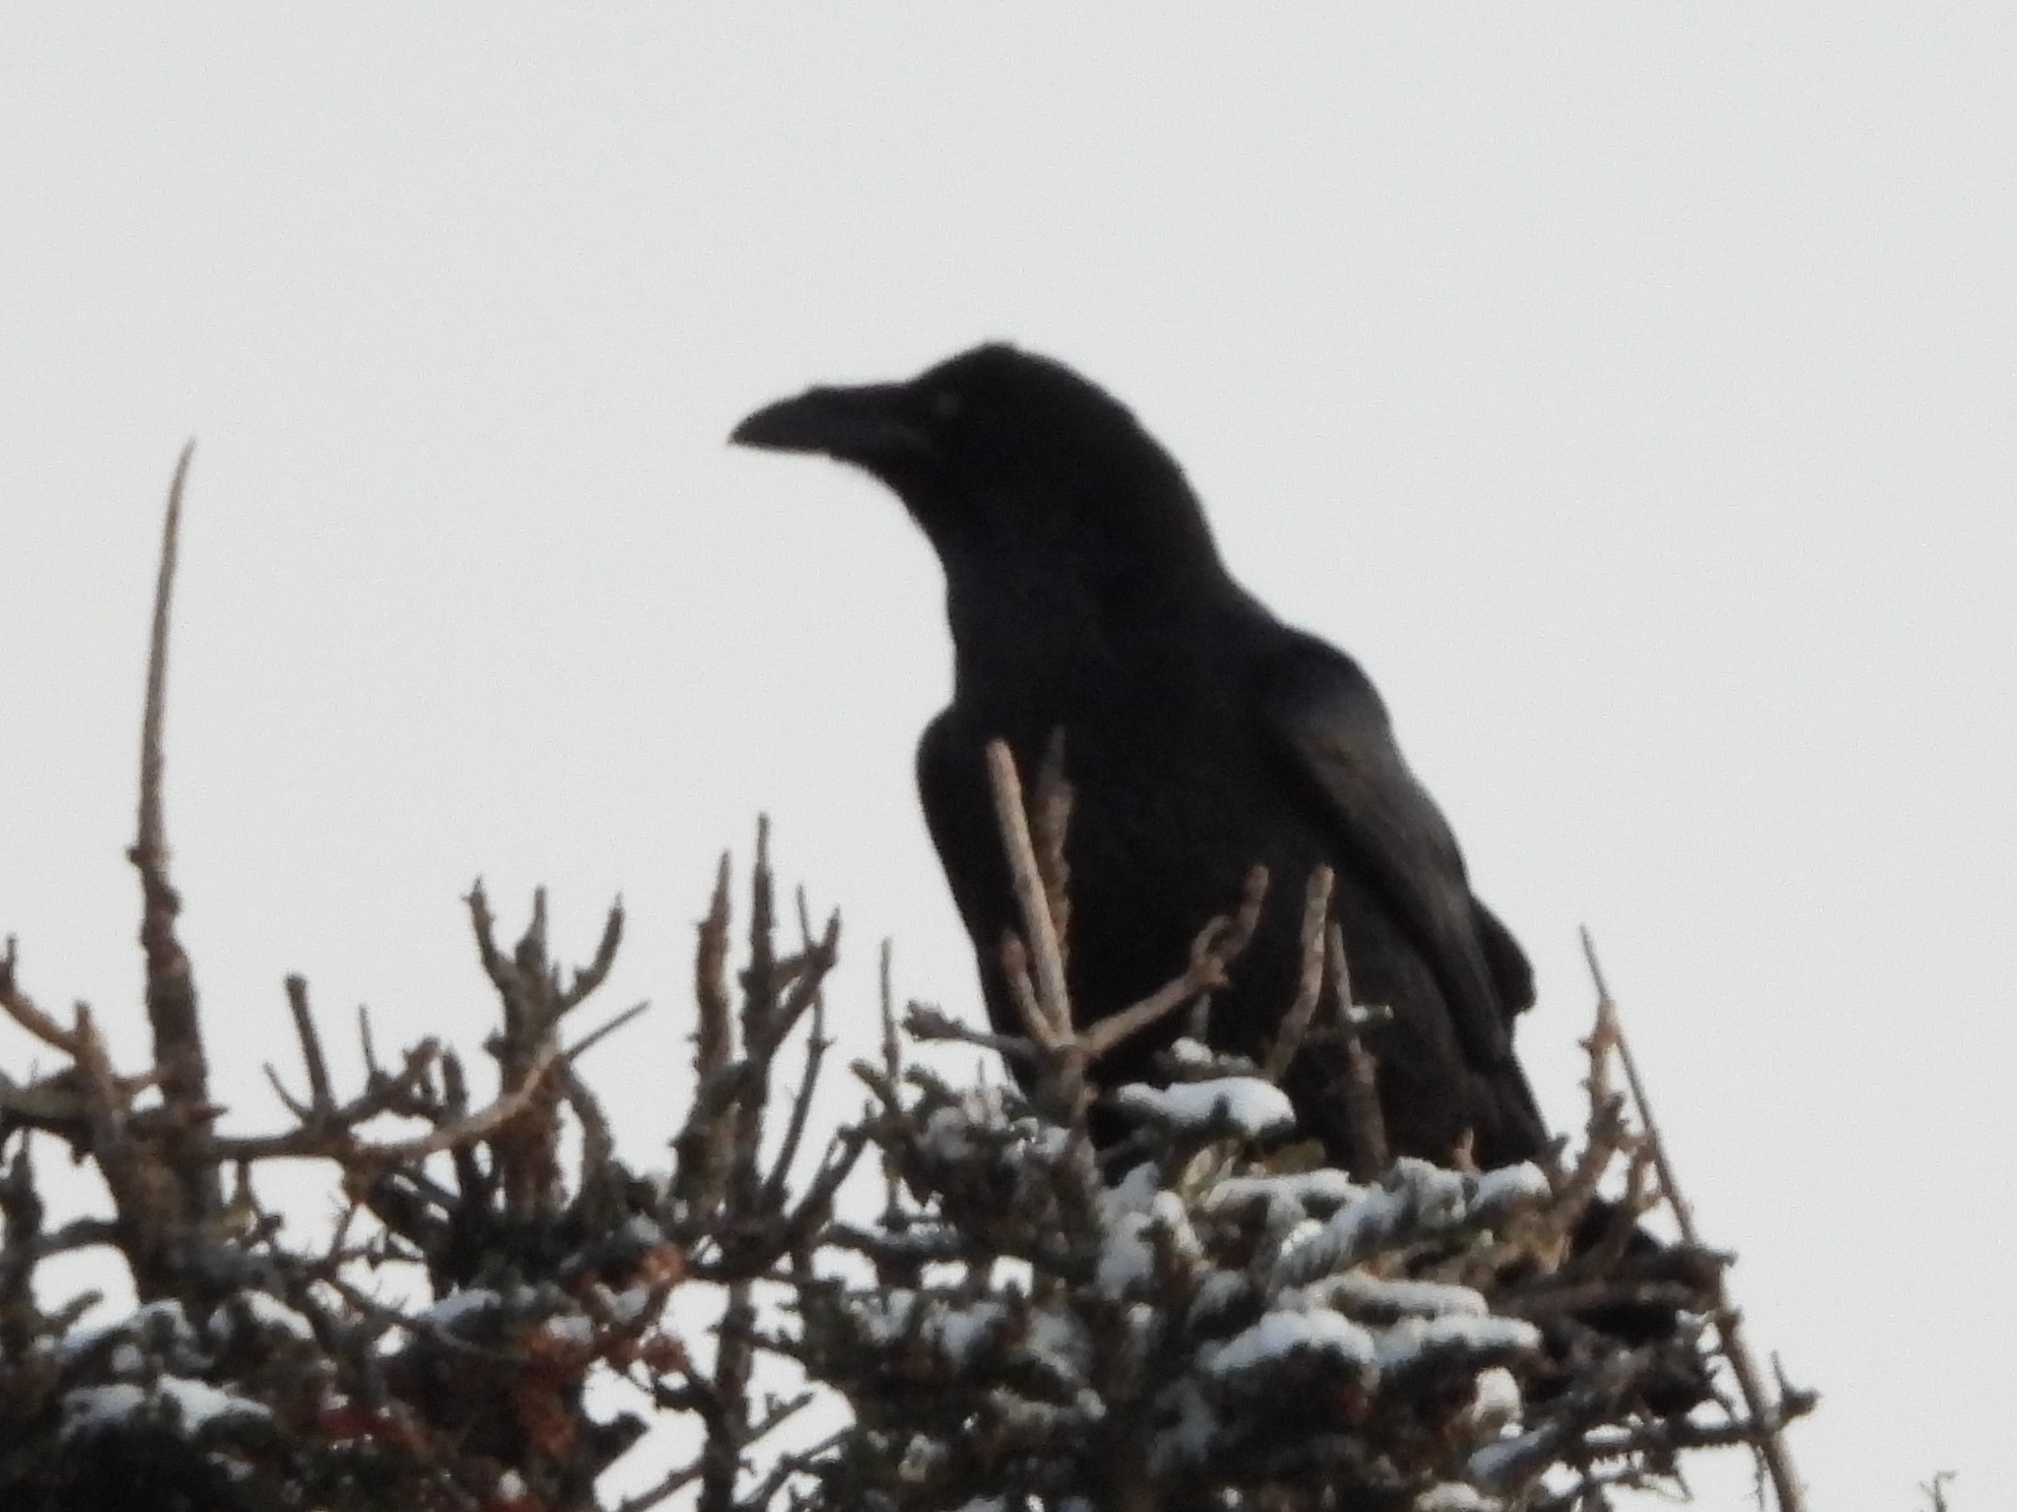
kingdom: Animalia
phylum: Chordata
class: Aves
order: Passeriformes
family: Corvidae
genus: Corvus
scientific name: Corvus corax
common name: Common raven
